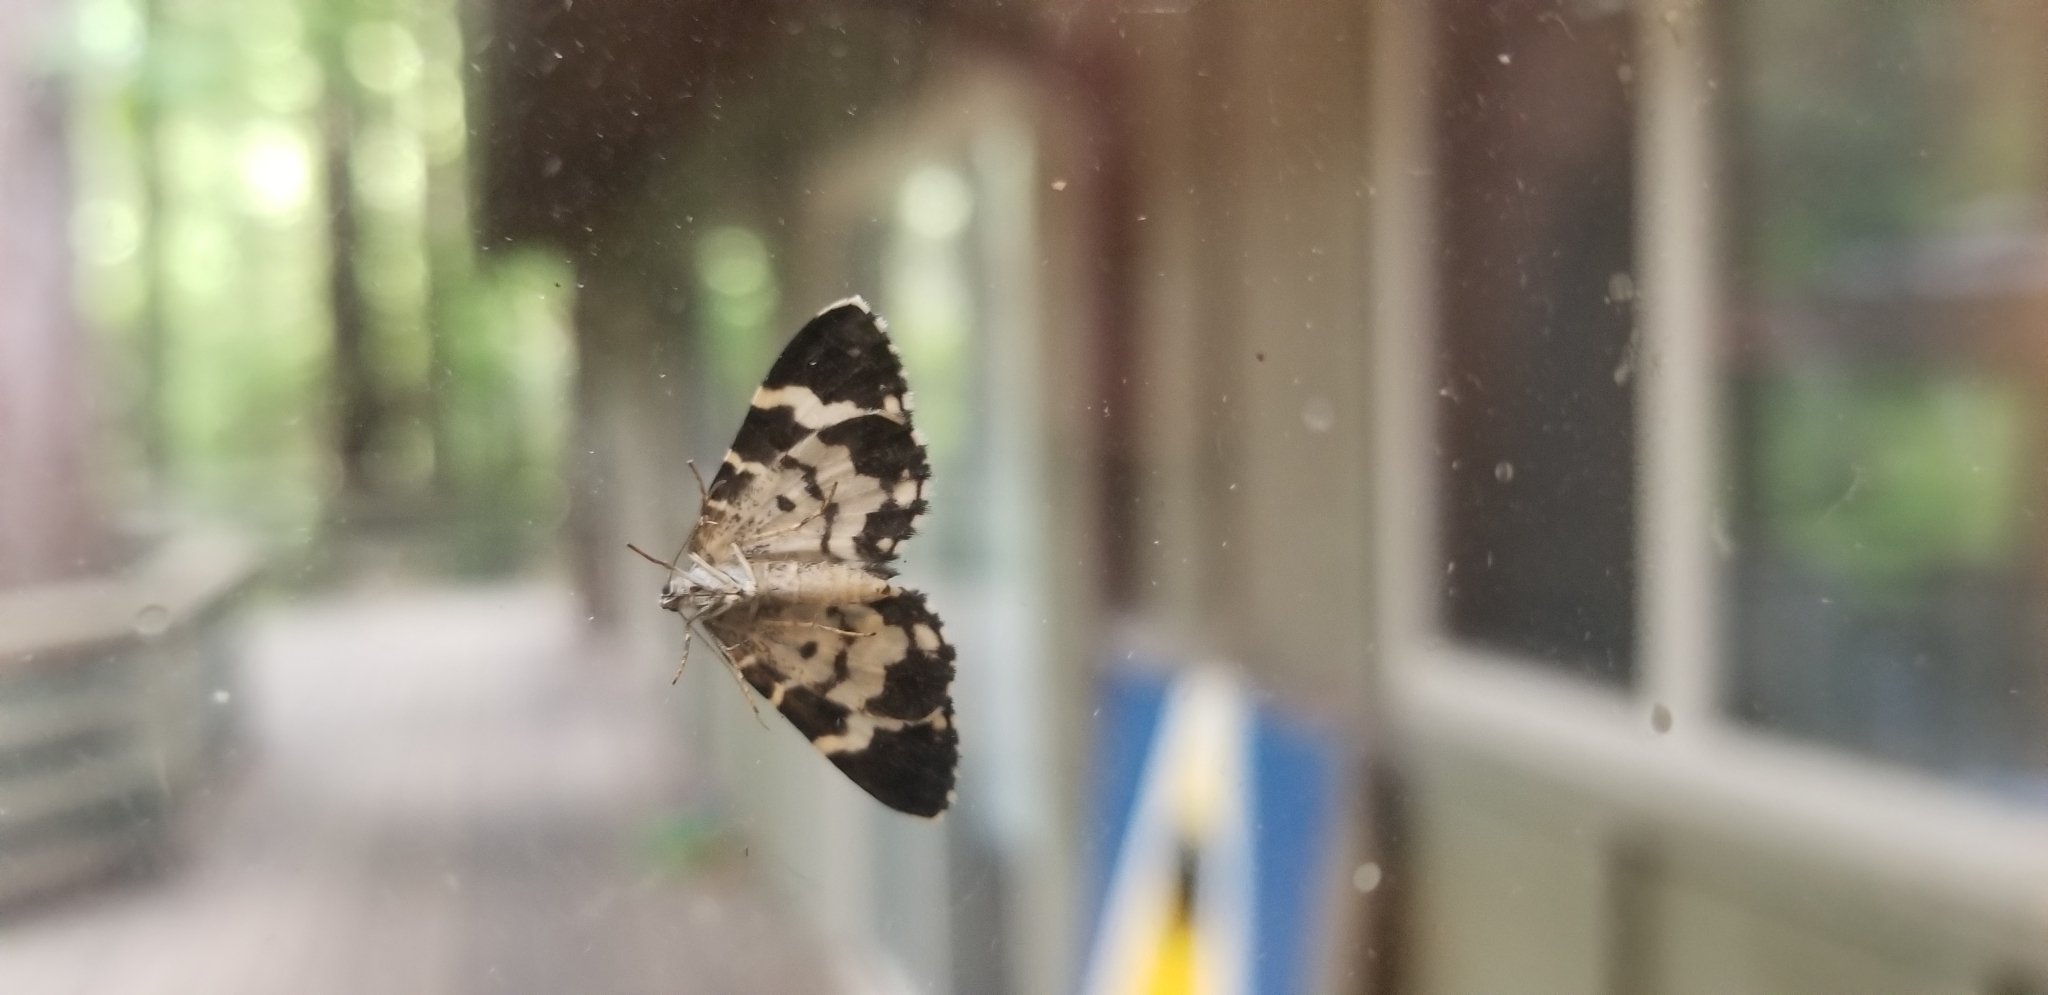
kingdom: Animalia
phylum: Arthropoda
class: Insecta
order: Lepidoptera
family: Geometridae
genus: Trichodezia
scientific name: Trichodezia californiata
